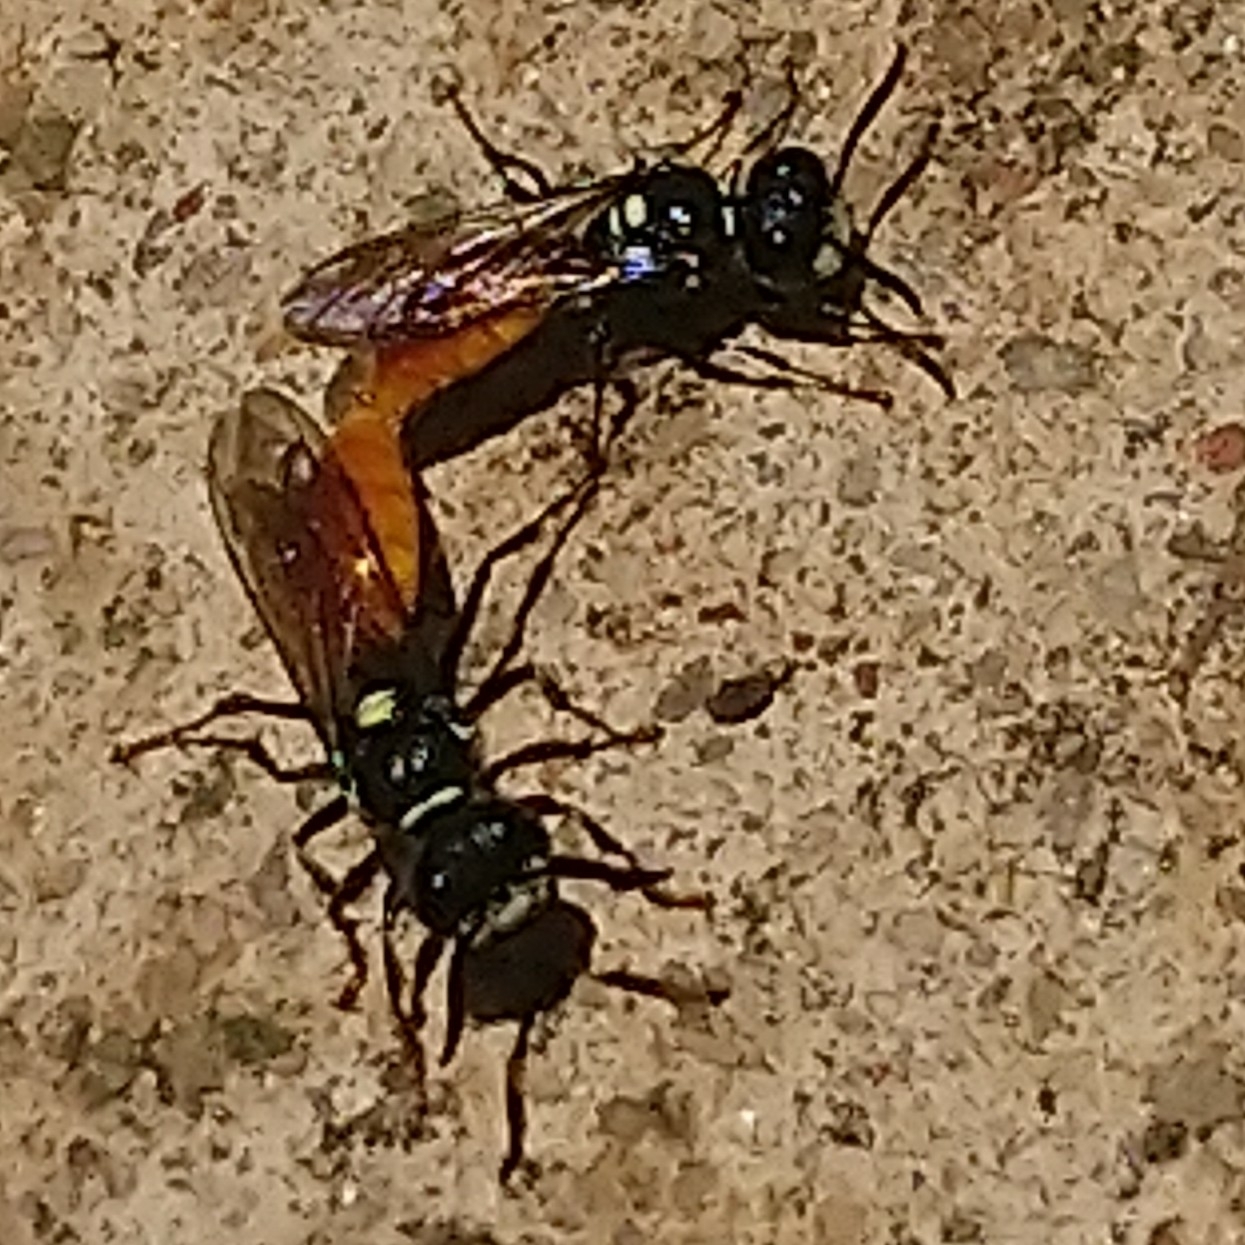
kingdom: Animalia
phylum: Arthropoda
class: Insecta
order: Hymenoptera
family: Crabronidae
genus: Philanthus
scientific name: Philanthus loeflingi
